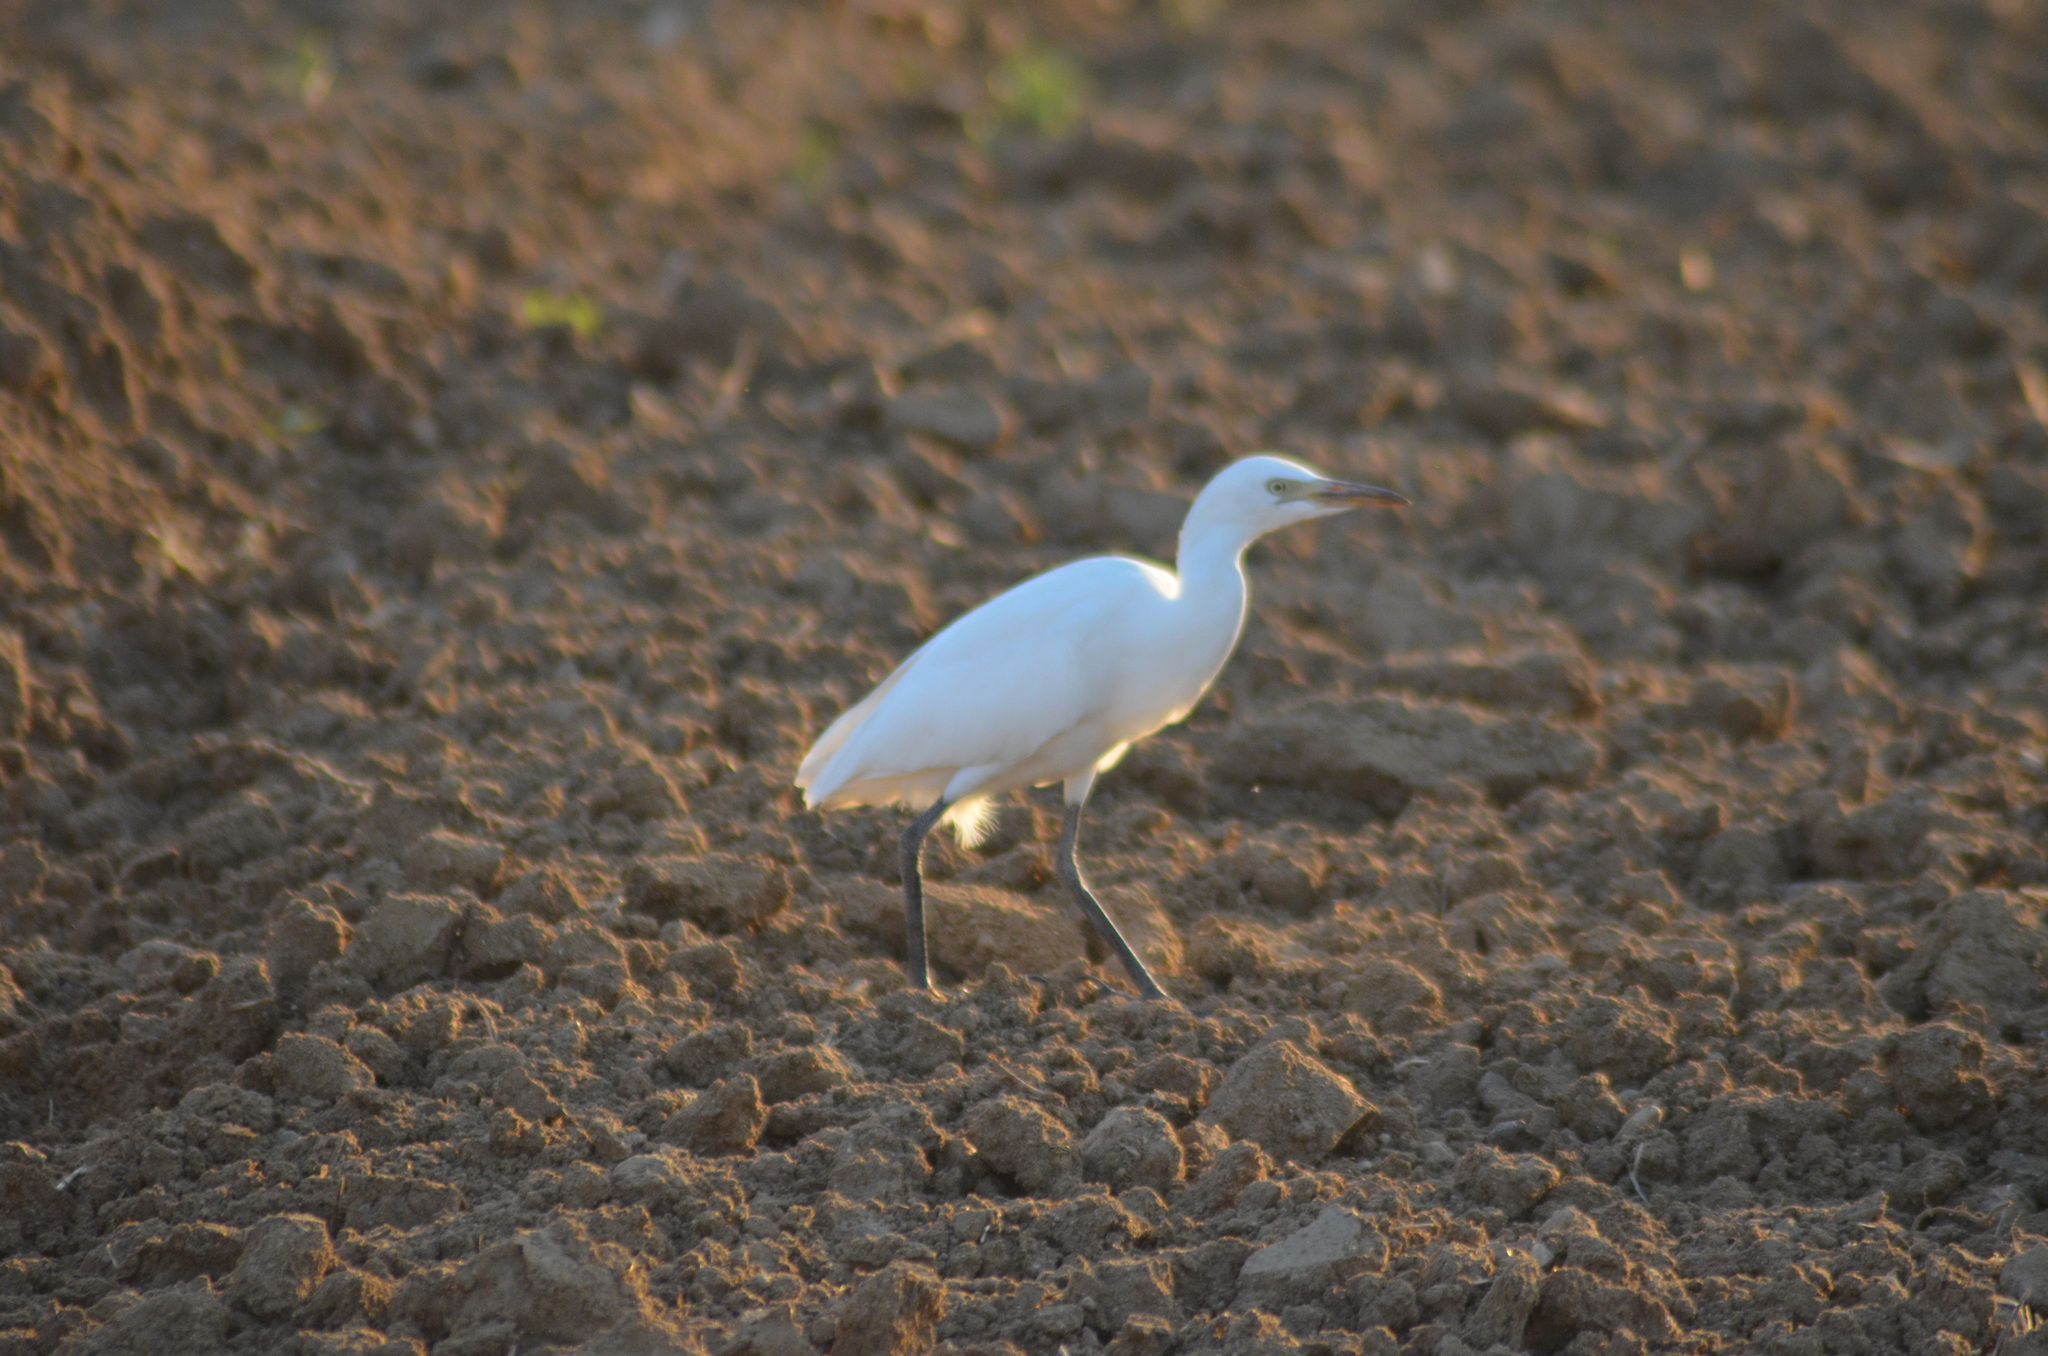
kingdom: Animalia
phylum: Chordata
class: Aves
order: Pelecaniformes
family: Ardeidae
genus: Bubulcus
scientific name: Bubulcus ibis
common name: Cattle egret
